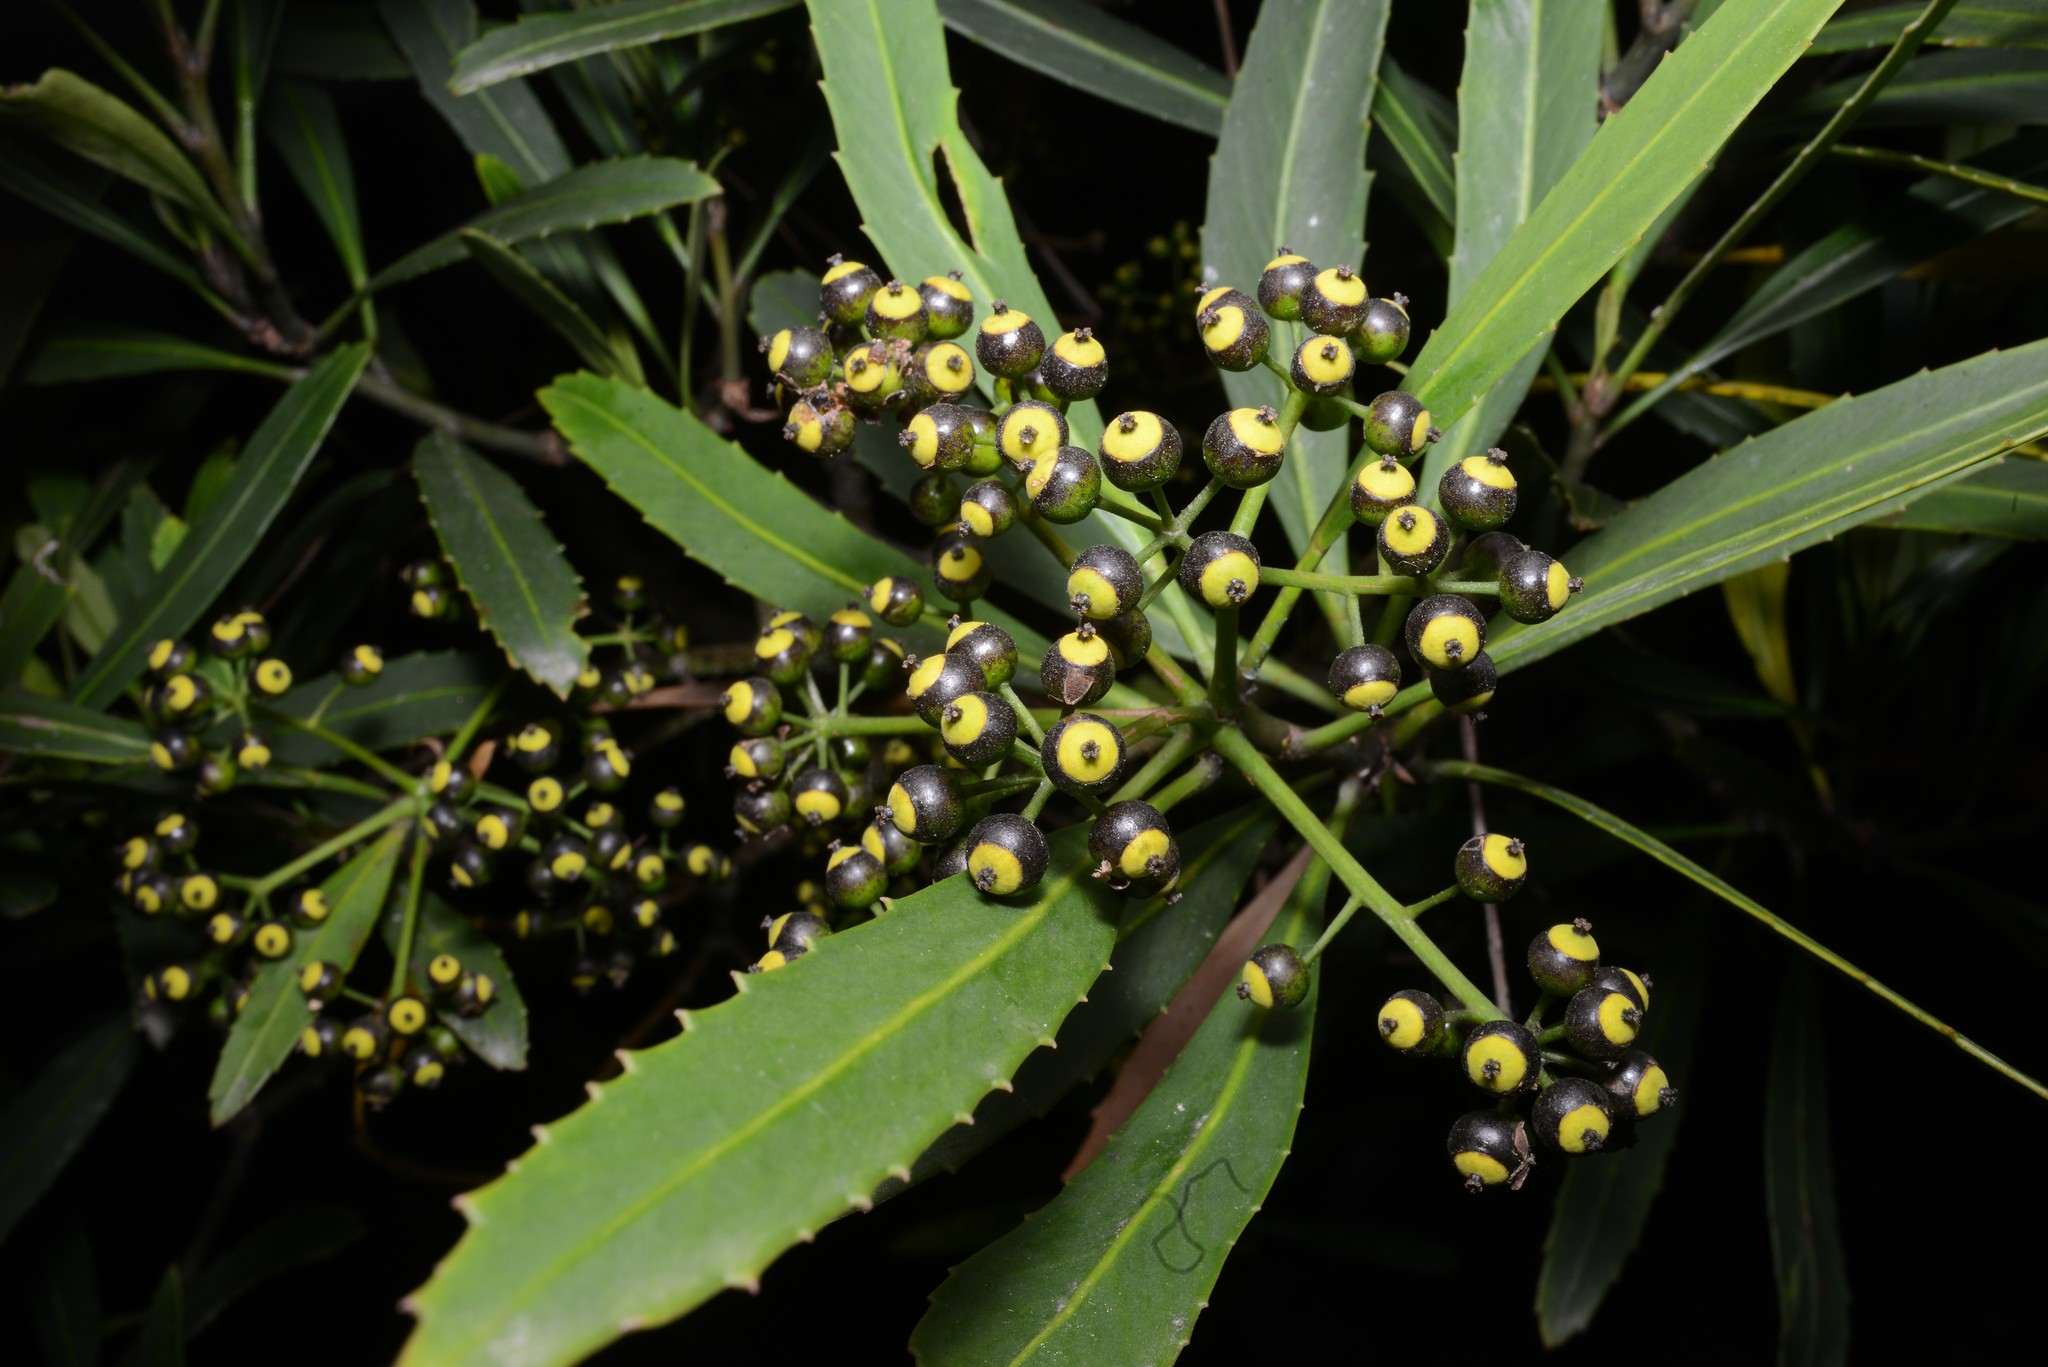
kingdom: Plantae
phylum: Tracheophyta
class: Magnoliopsida
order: Apiales
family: Araliaceae
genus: Pseudopanax
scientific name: Pseudopanax crassifolius
